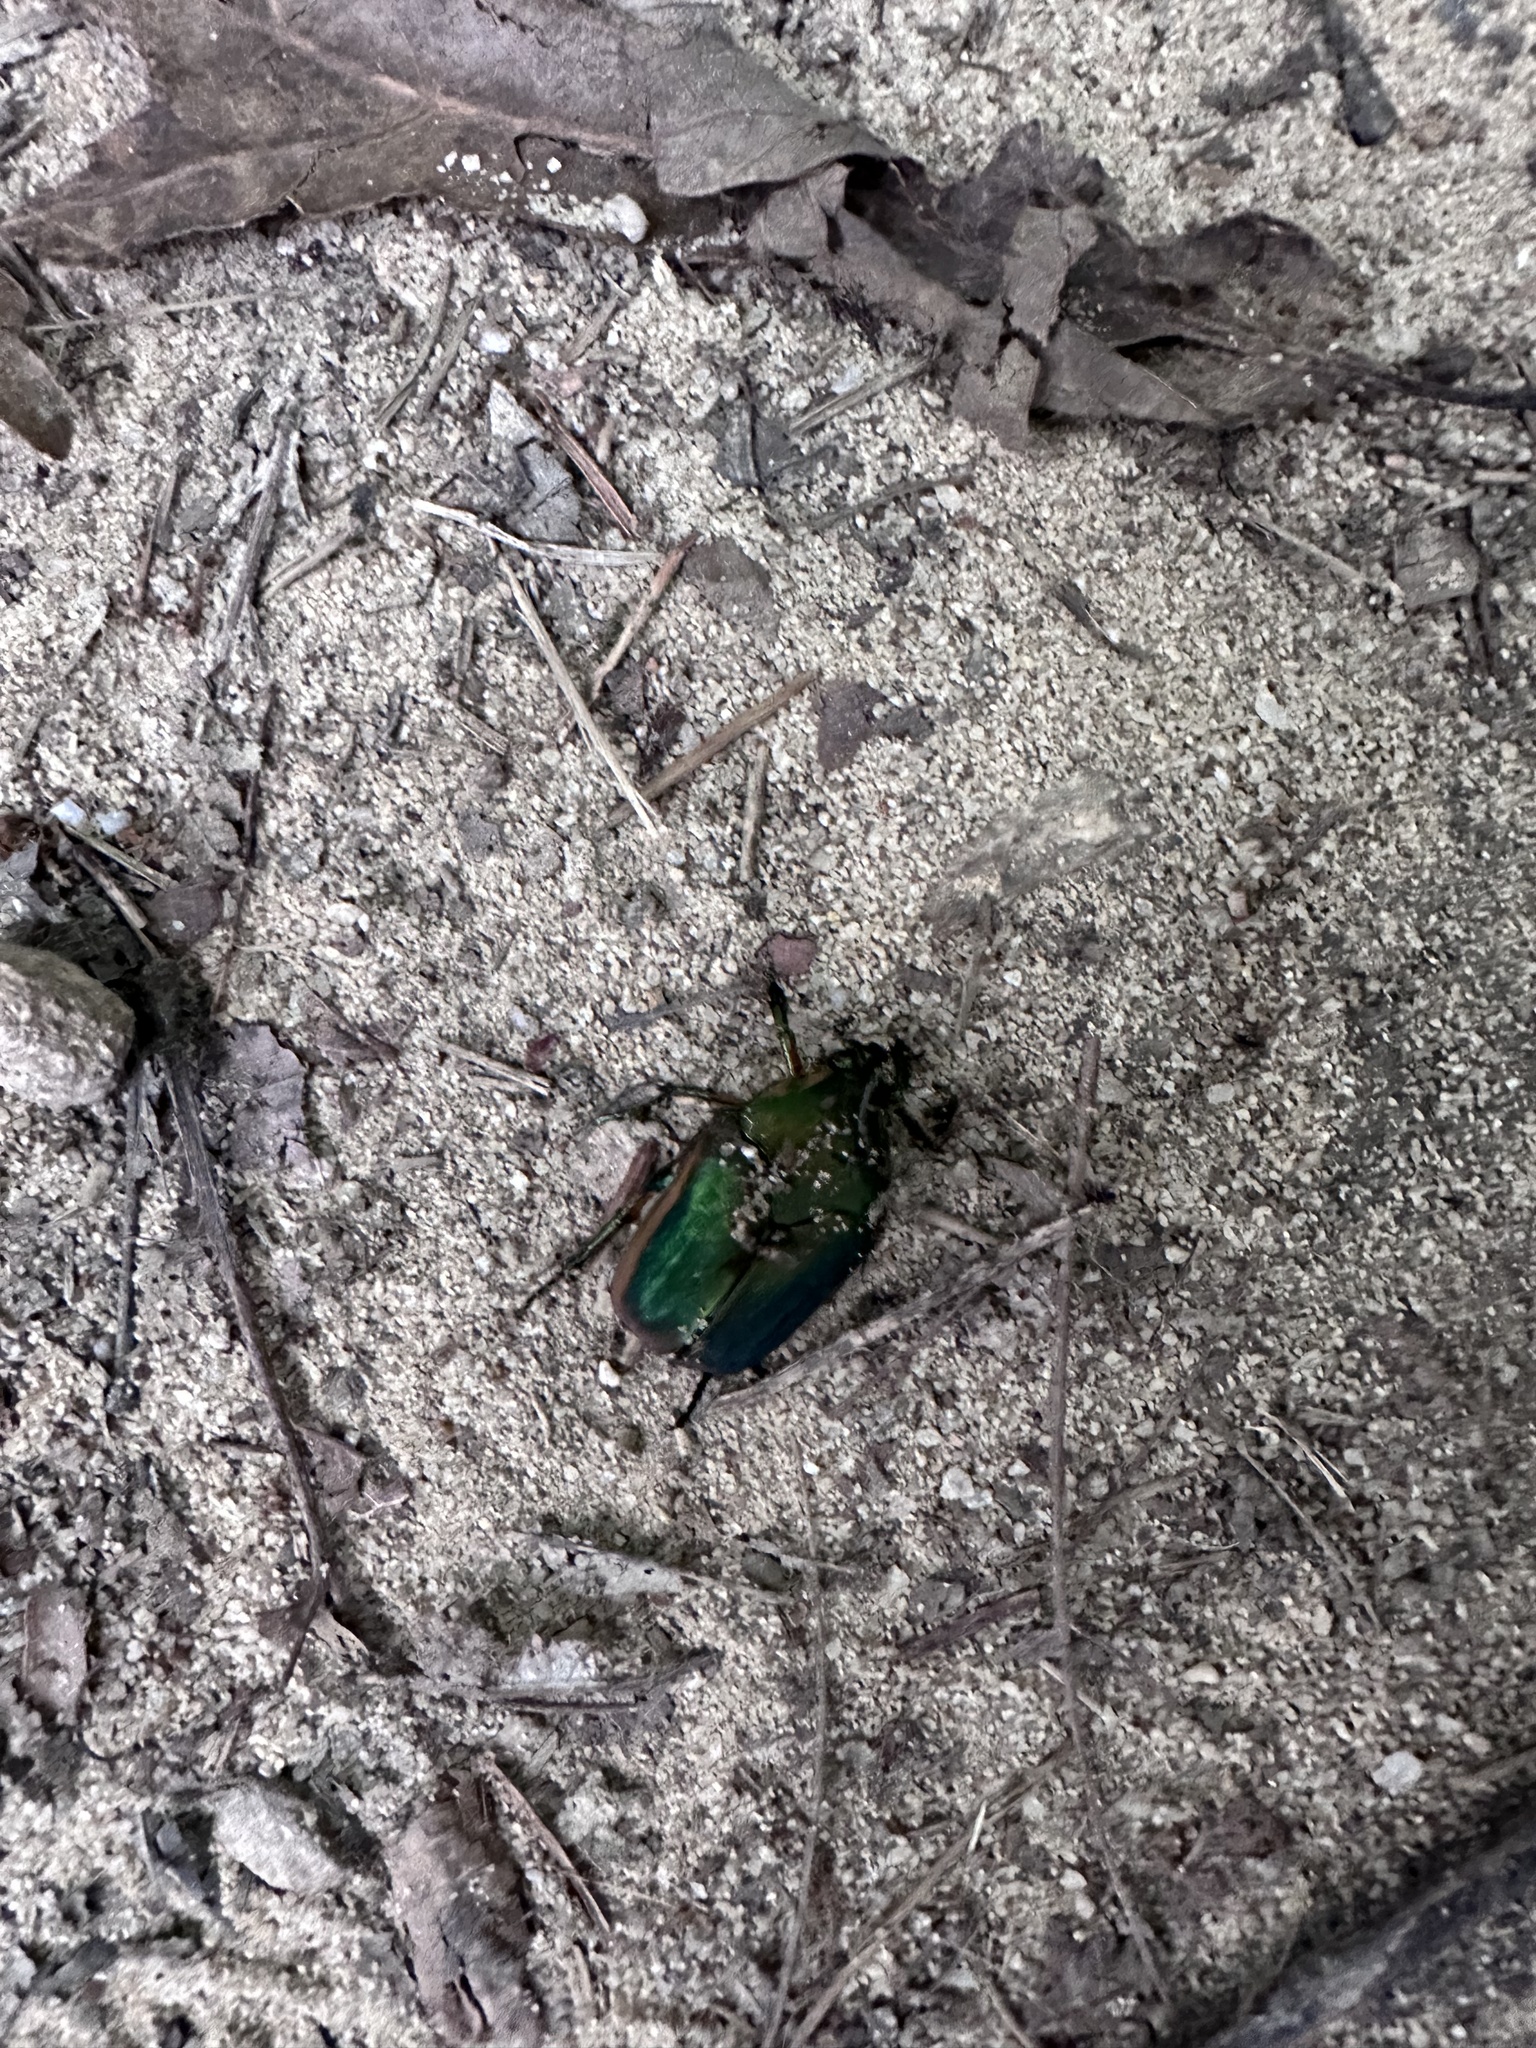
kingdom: Animalia
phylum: Arthropoda
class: Insecta
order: Coleoptera
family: Scarabaeidae
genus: Cotinis
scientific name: Cotinis nitida
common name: Common green june beetle
